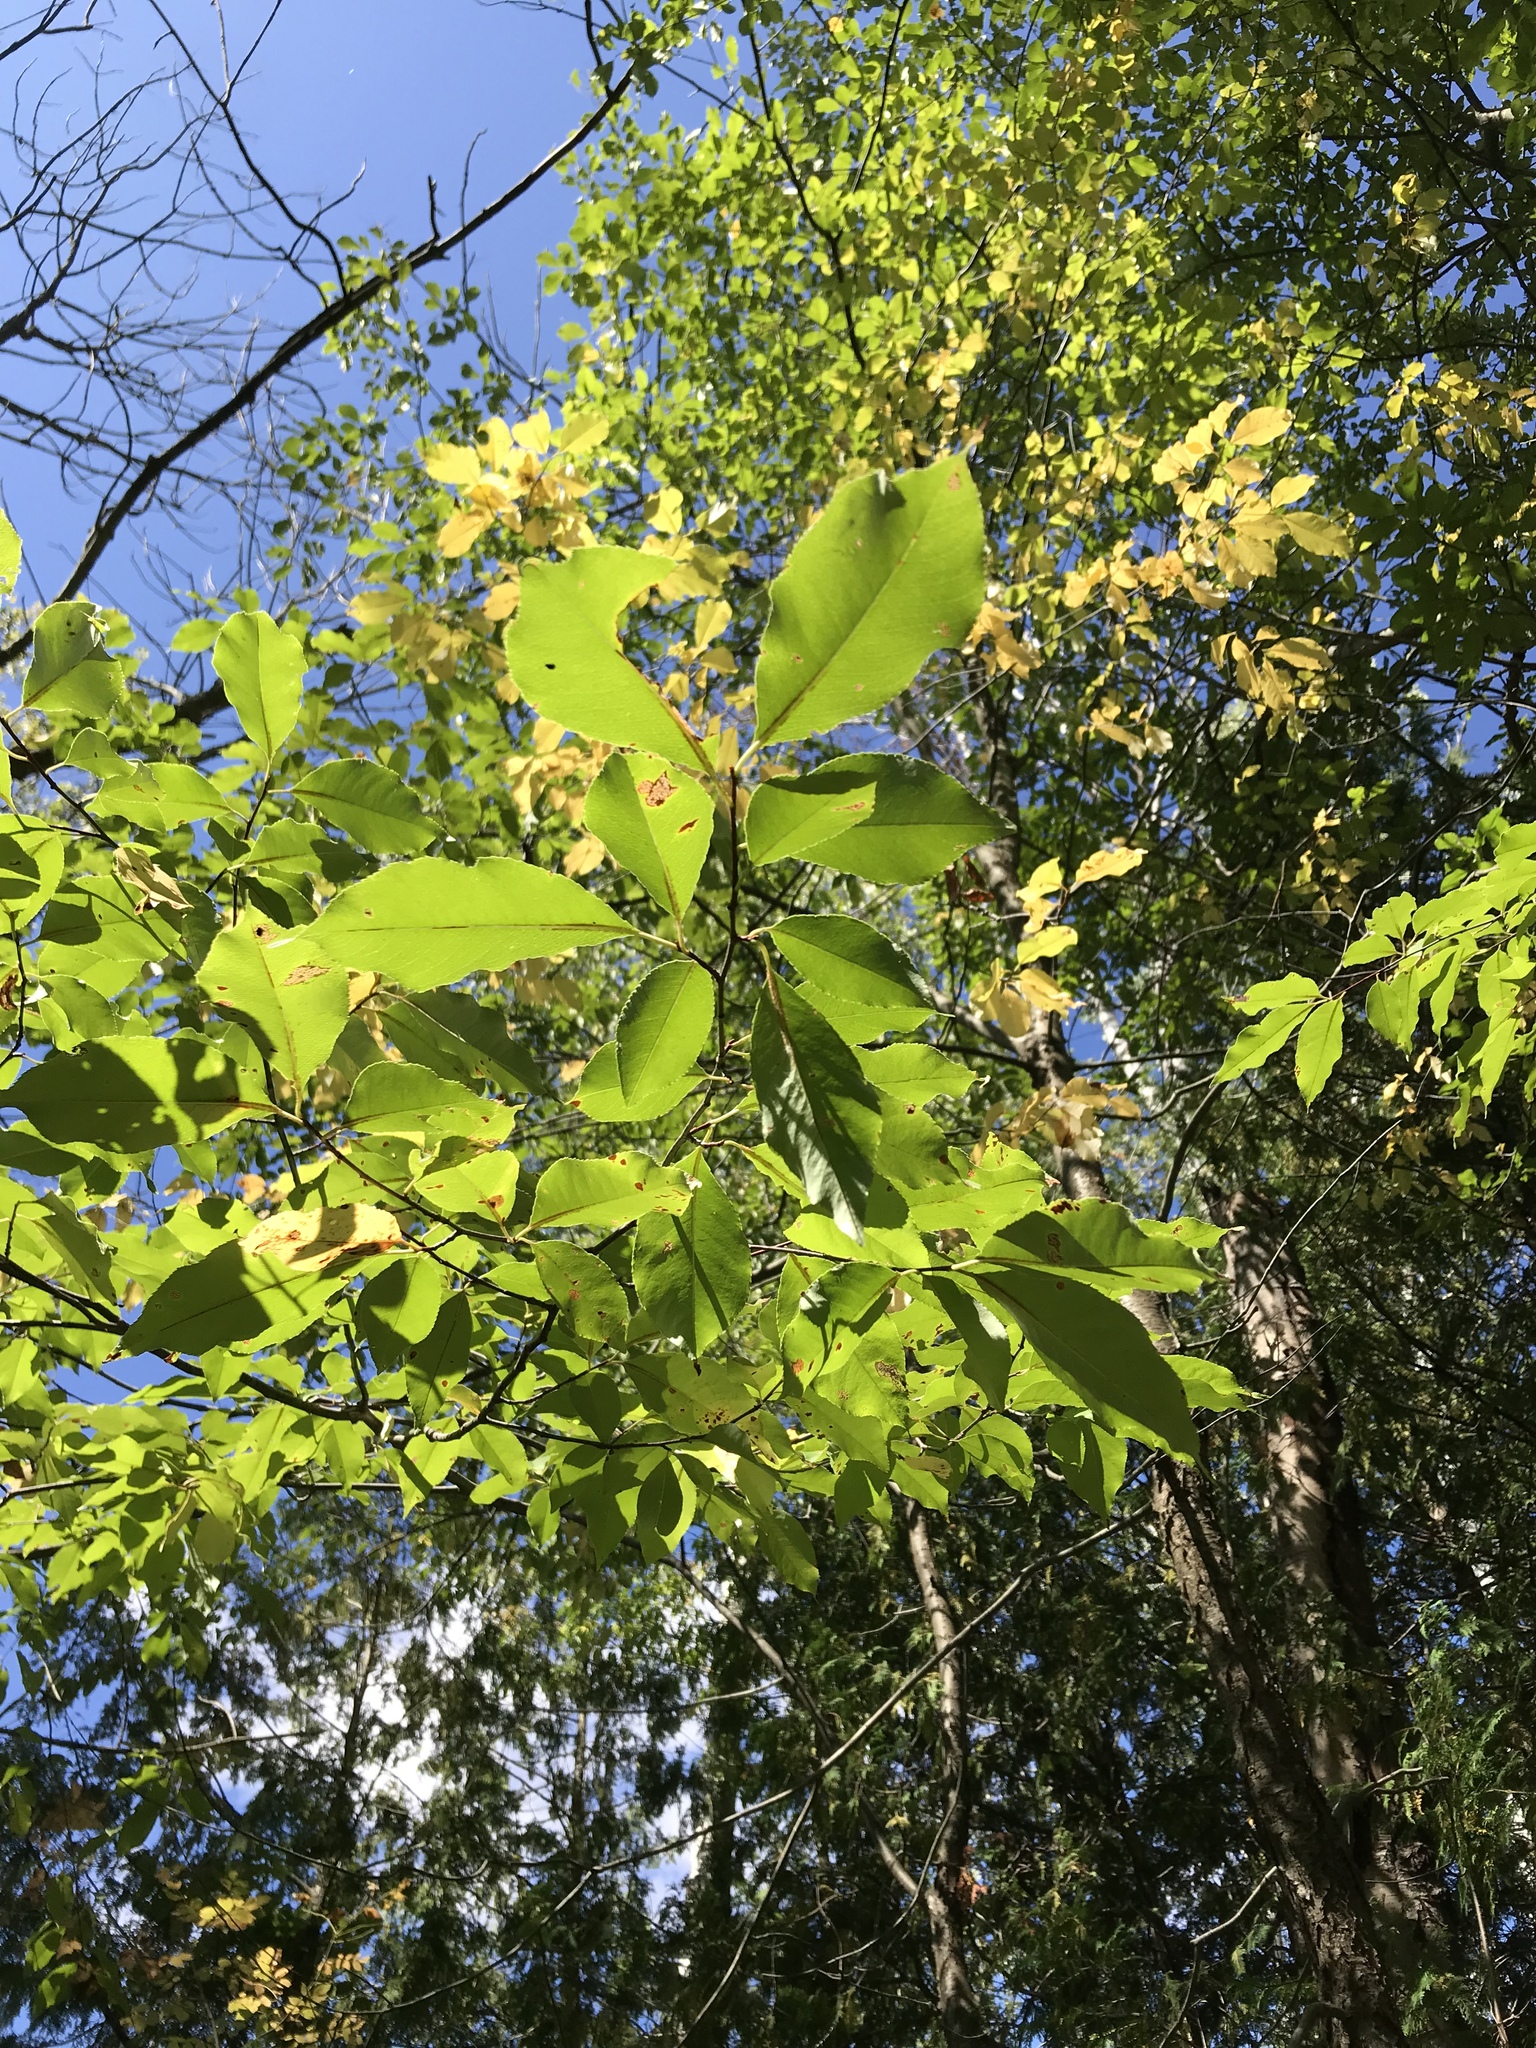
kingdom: Plantae
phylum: Tracheophyta
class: Magnoliopsida
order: Rosales
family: Rosaceae
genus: Prunus
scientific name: Prunus serotina
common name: Black cherry
